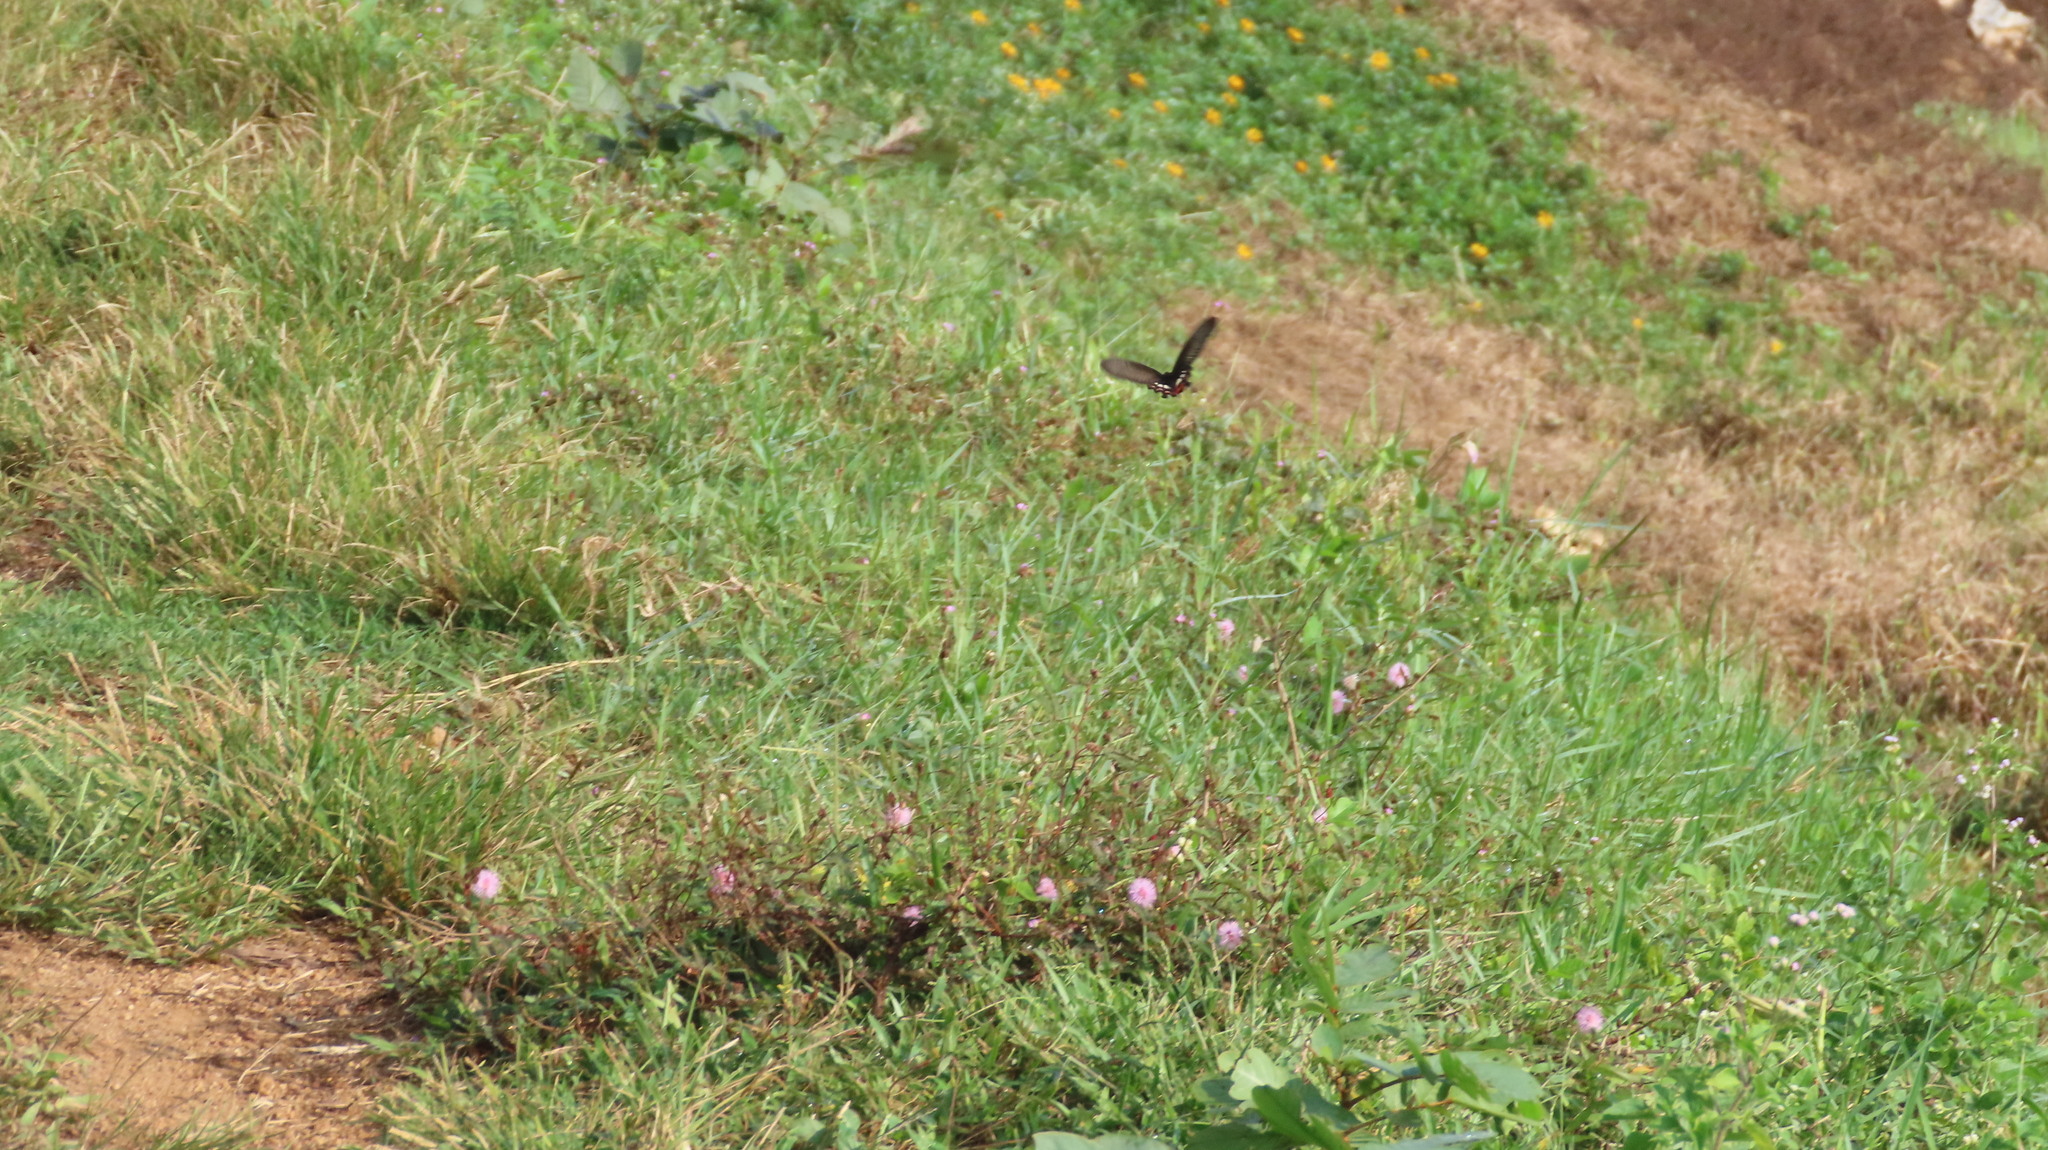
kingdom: Animalia
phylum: Arthropoda
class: Insecta
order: Lepidoptera
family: Papilionidae
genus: Papilio
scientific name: Papilio polytes
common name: Common mormon
